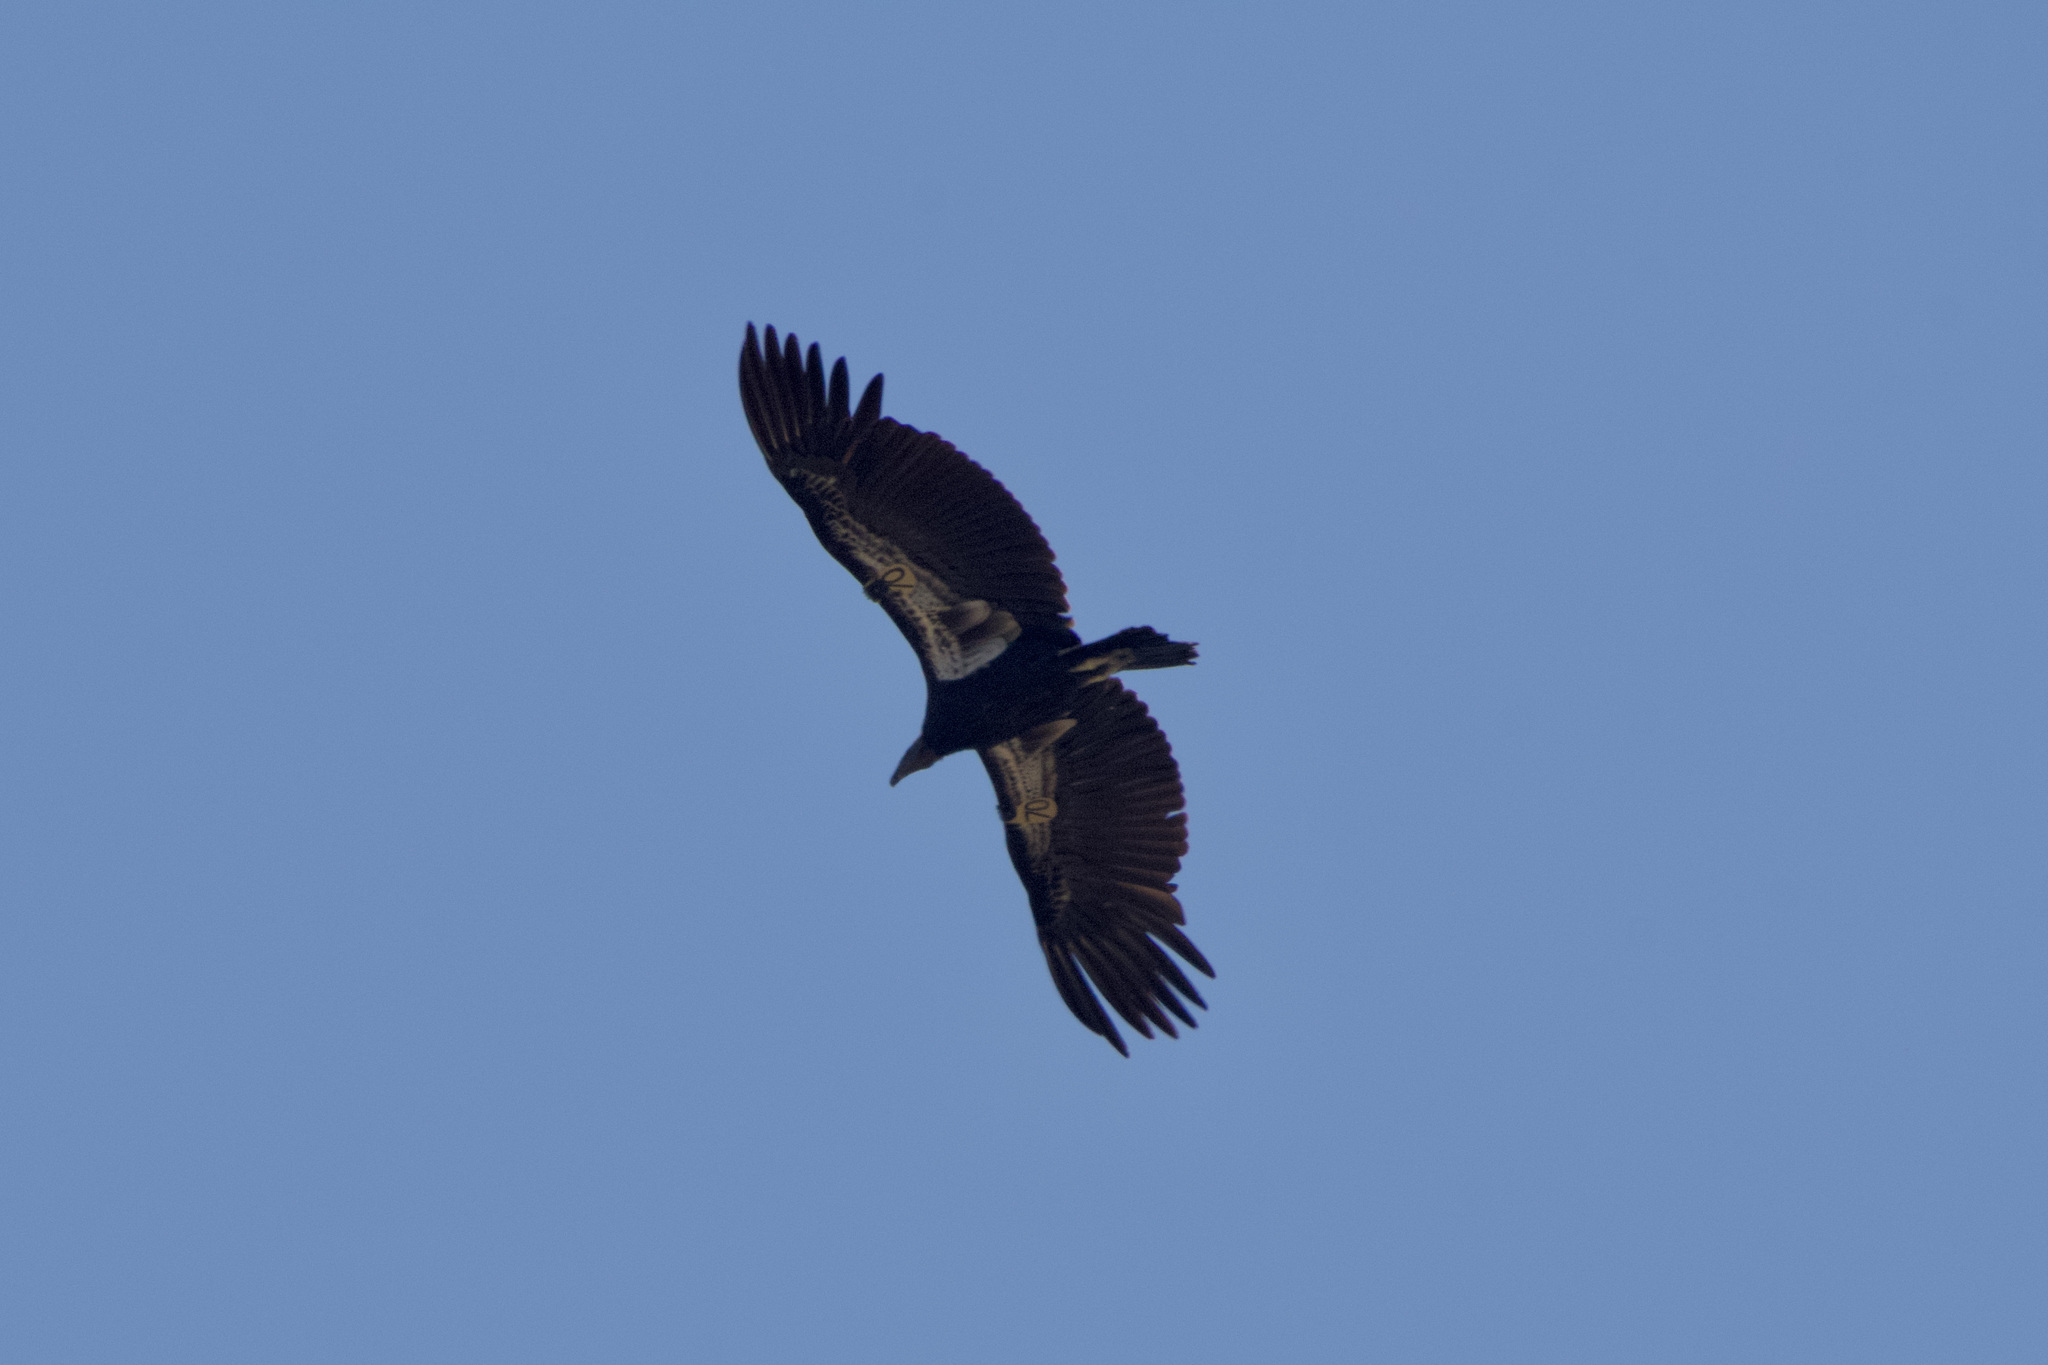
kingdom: Animalia
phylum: Chordata
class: Aves
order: Accipitriformes
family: Cathartidae
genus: Gymnogyps
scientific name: Gymnogyps californianus
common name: California condor
